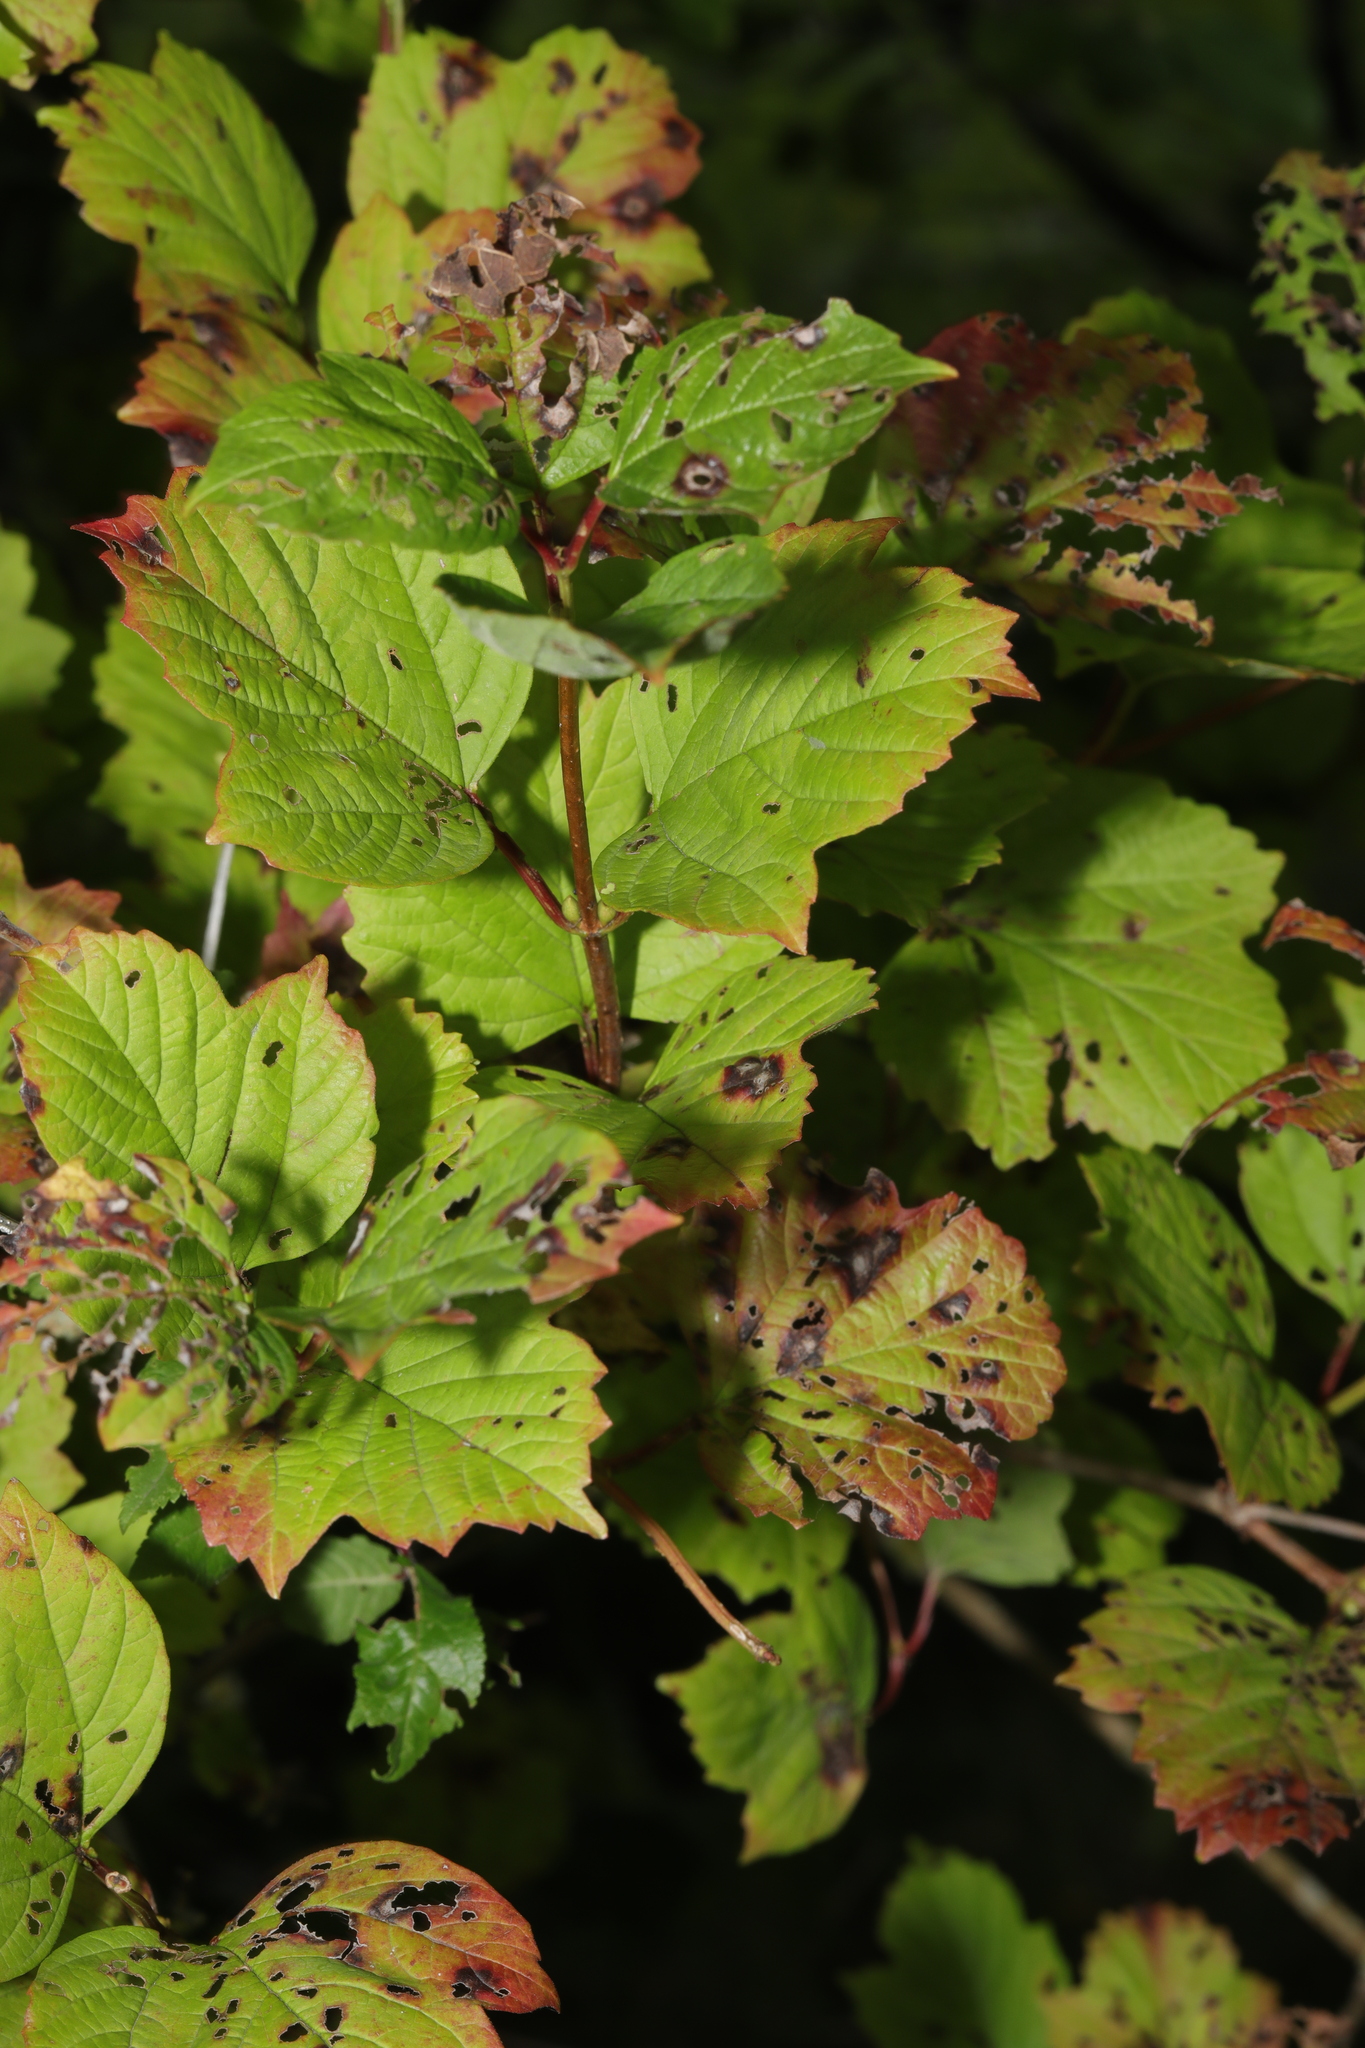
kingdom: Plantae
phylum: Tracheophyta
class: Magnoliopsida
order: Dipsacales
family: Viburnaceae
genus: Viburnum
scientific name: Viburnum opulus
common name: Guelder-rose
